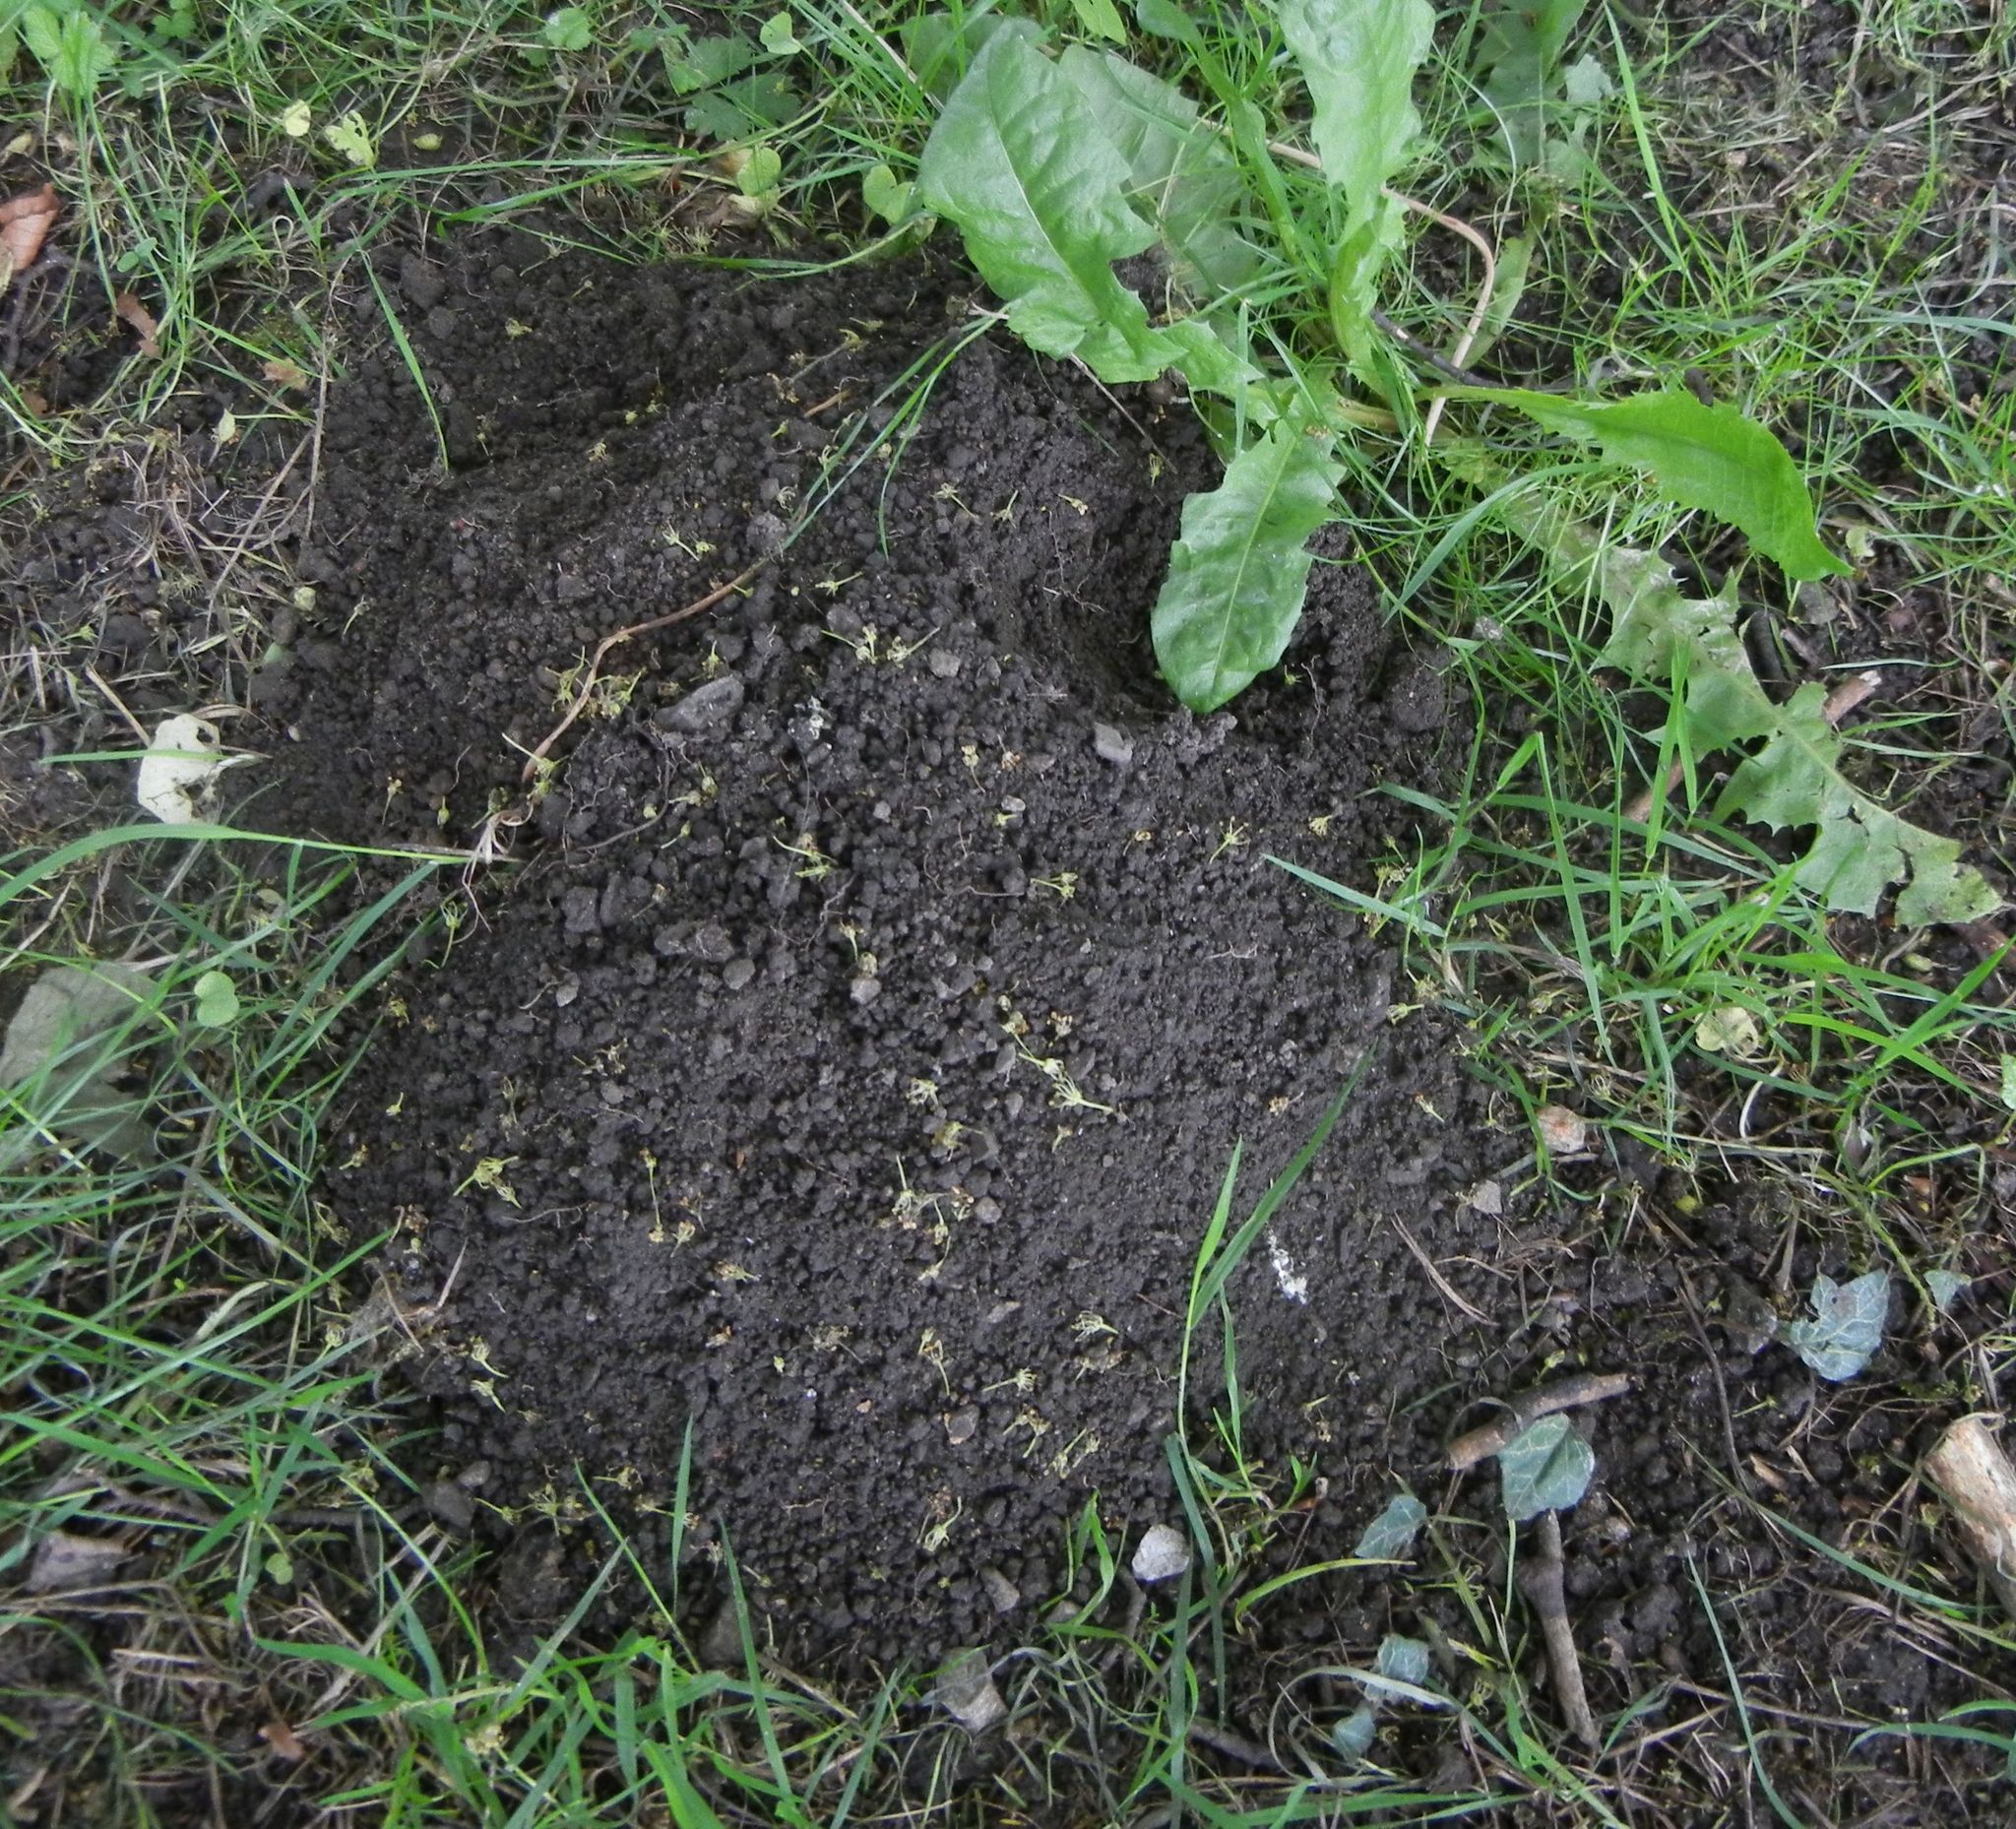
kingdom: Animalia
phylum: Chordata
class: Mammalia
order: Soricomorpha
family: Talpidae
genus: Talpa
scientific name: Talpa europaea
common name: European mole
